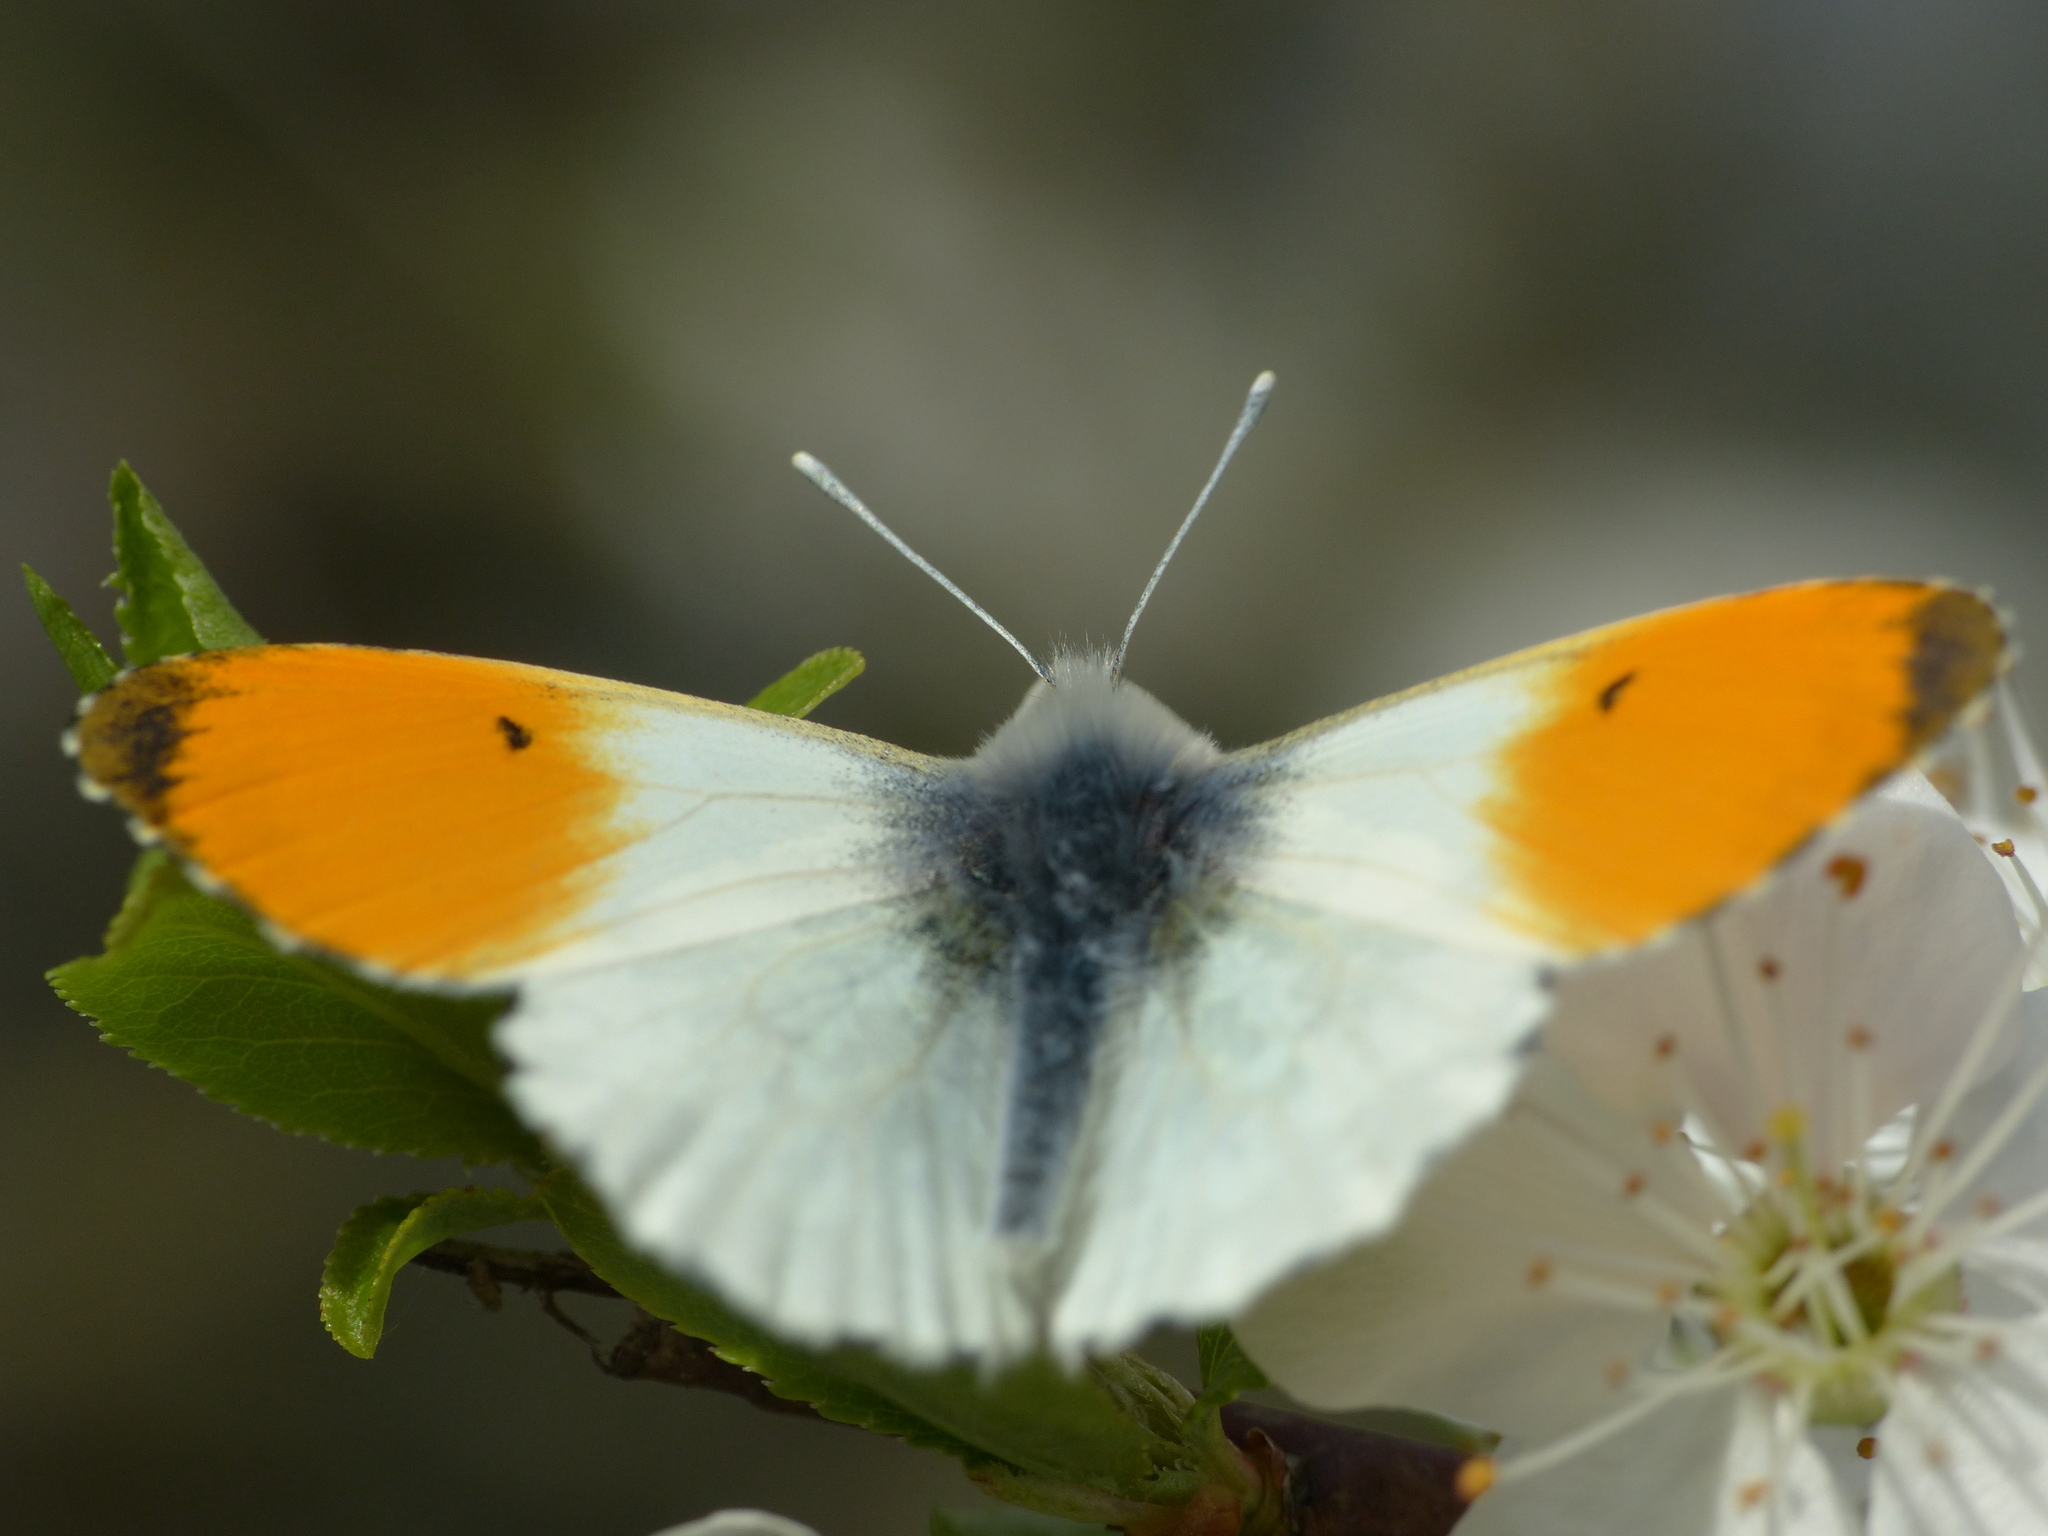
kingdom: Animalia
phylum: Arthropoda
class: Insecta
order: Lepidoptera
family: Pieridae
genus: Anthocharis
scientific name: Anthocharis cardamines
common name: Orange-tip
